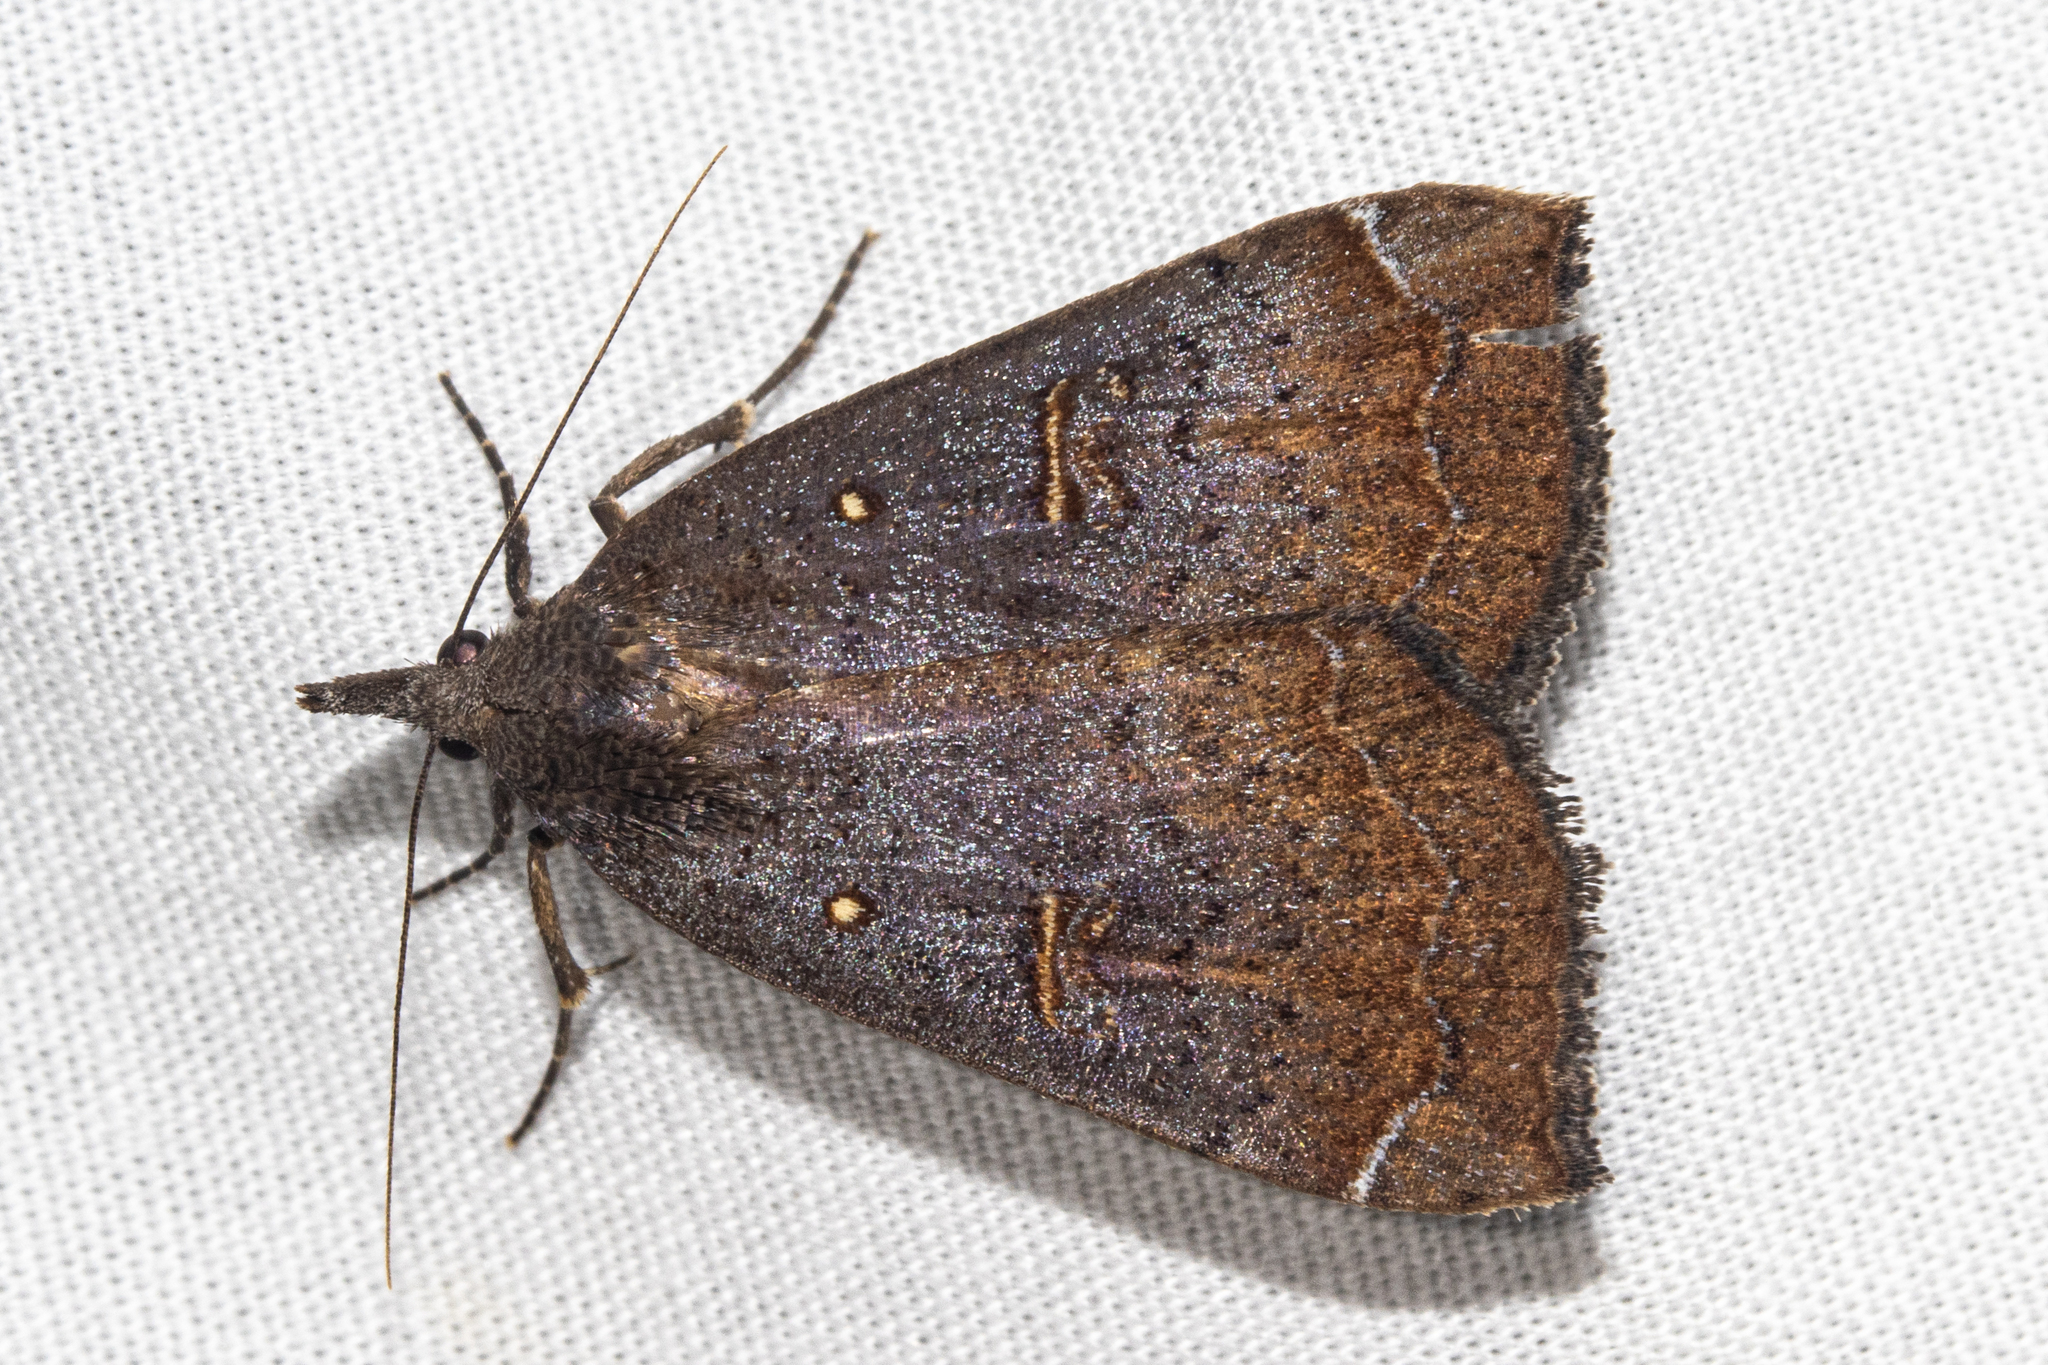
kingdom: Animalia
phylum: Arthropoda
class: Insecta
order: Lepidoptera
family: Erebidae
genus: Rhapsa
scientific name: Rhapsa scotosialis
